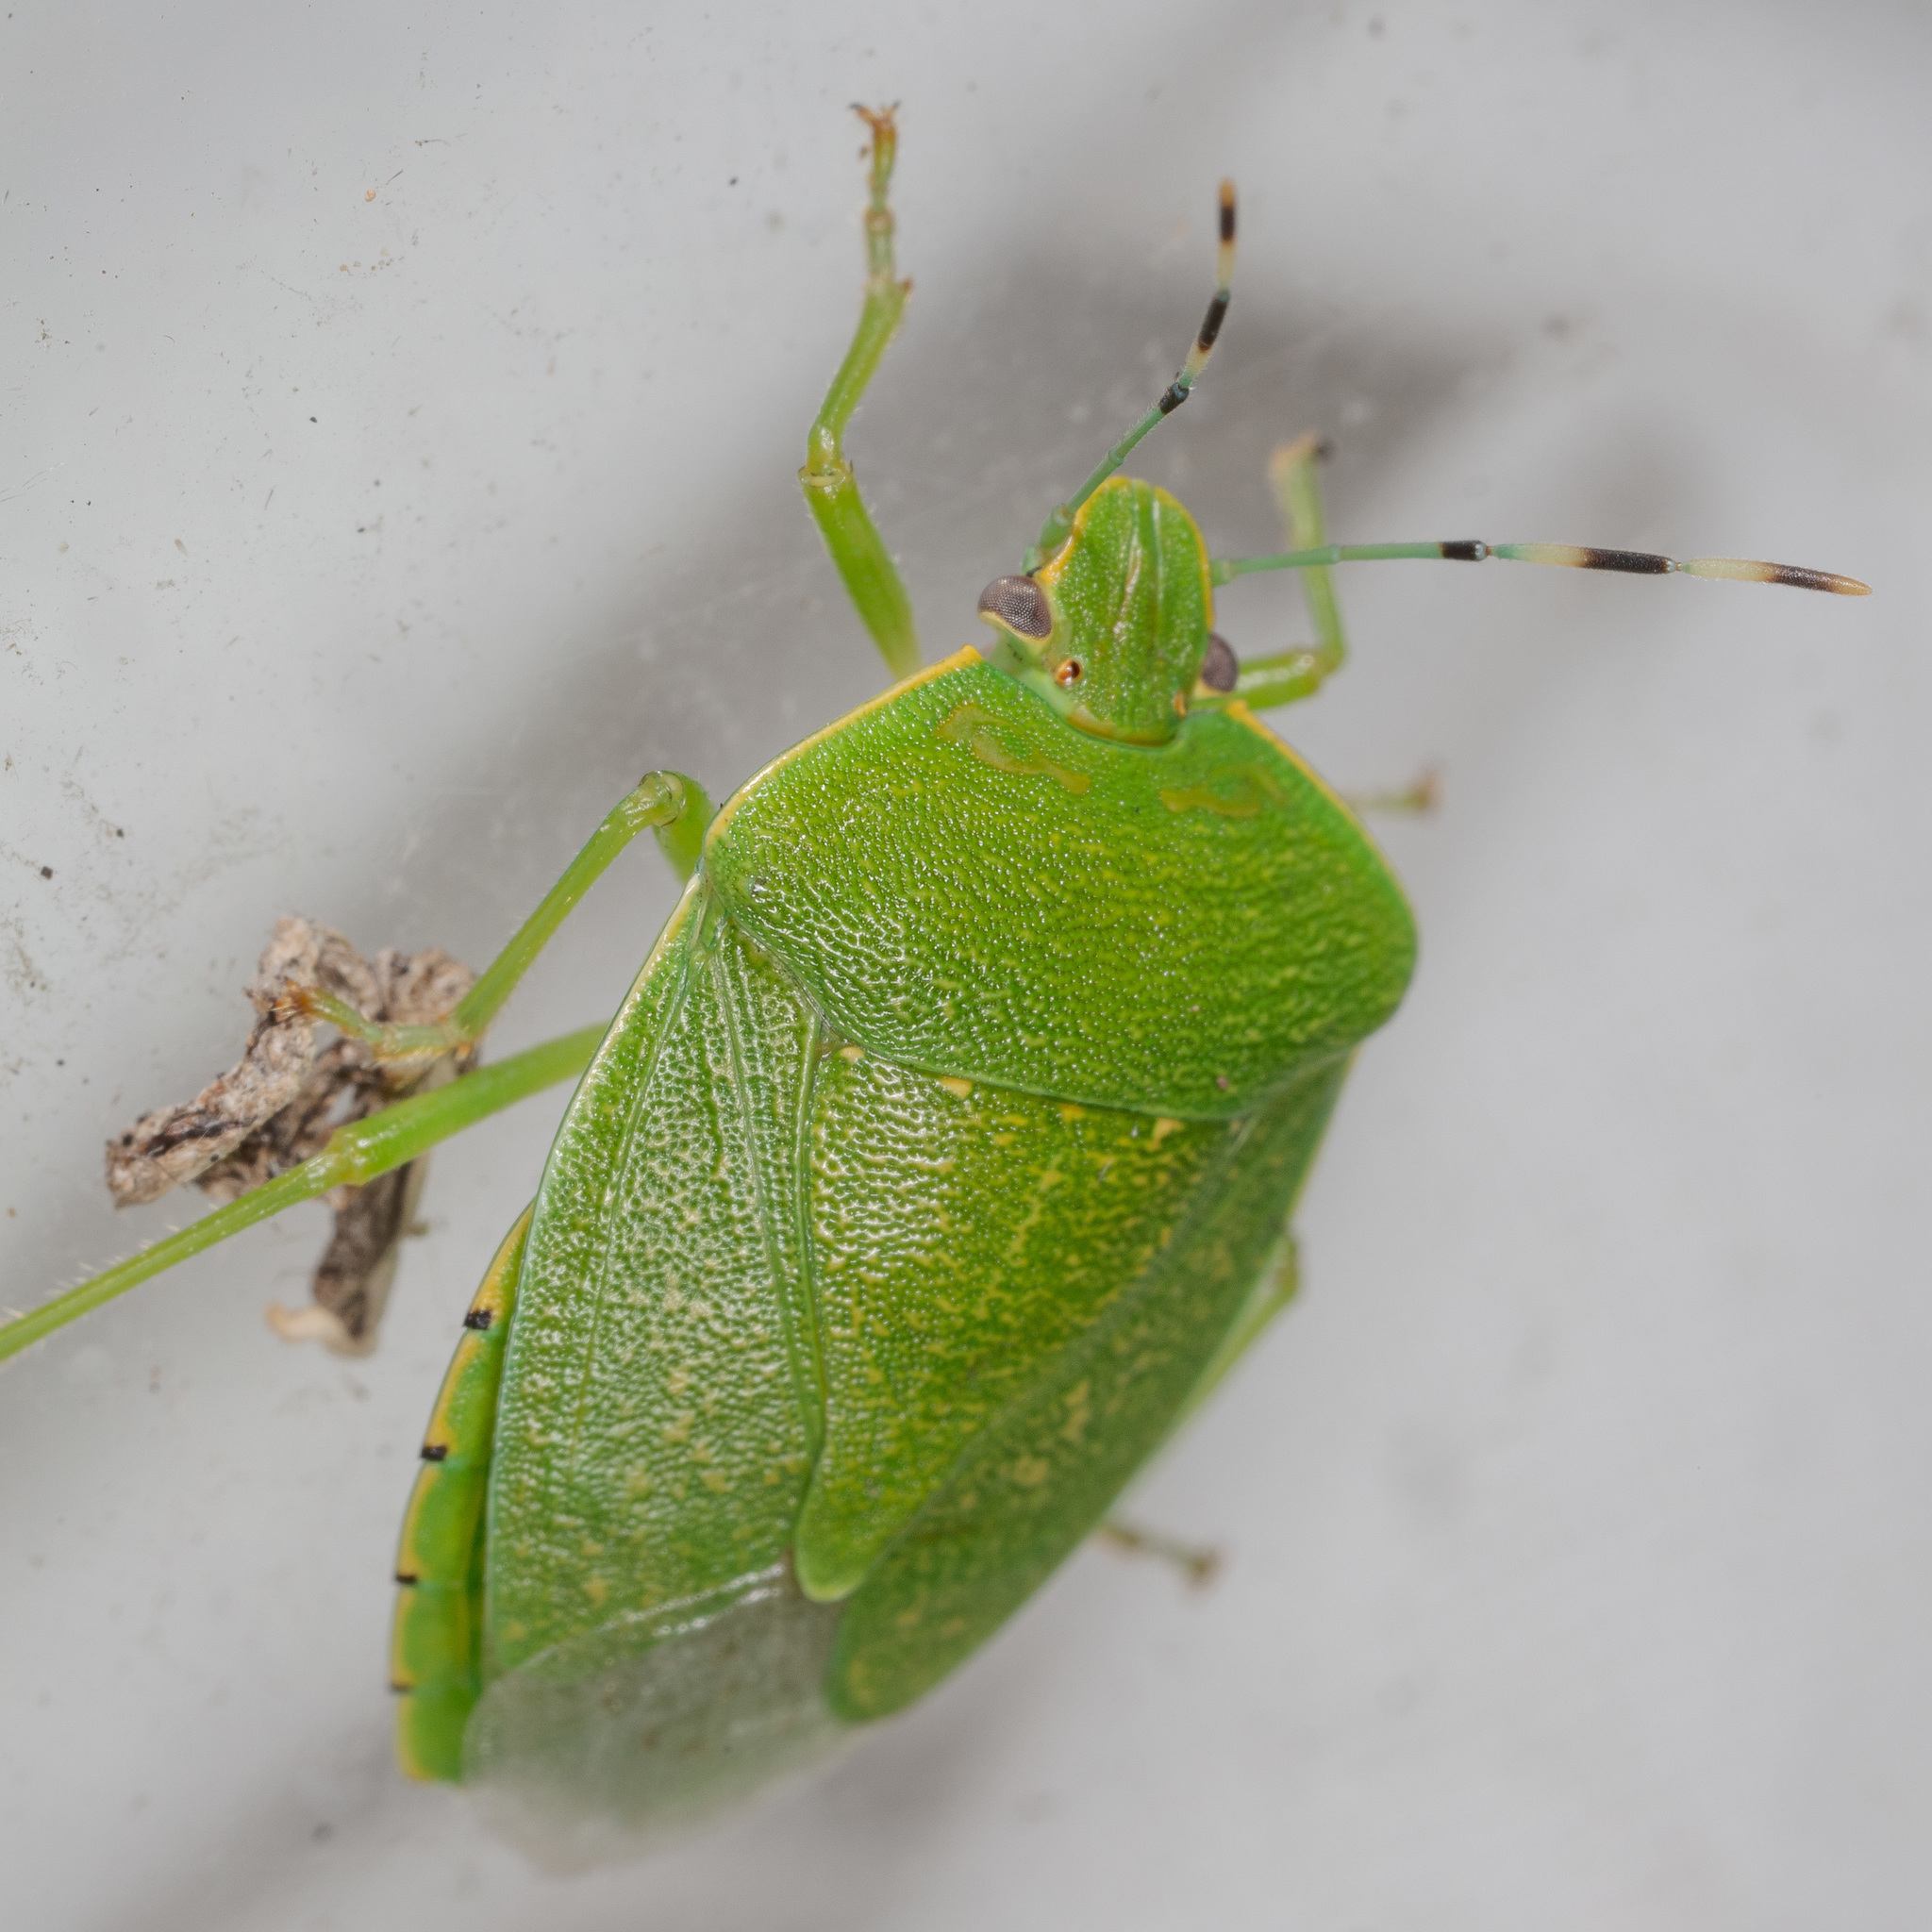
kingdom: Animalia
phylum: Arthropoda
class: Insecta
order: Hemiptera
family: Pentatomidae
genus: Chinavia
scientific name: Chinavia hilaris
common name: Green stink bug
